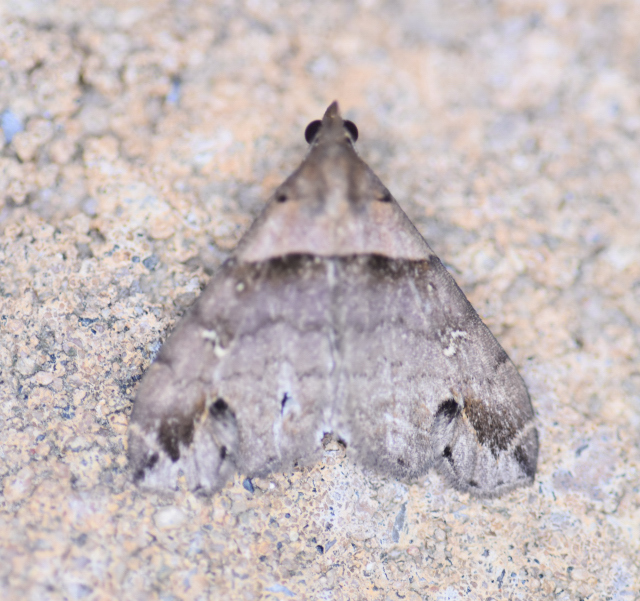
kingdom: Animalia
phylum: Arthropoda
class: Insecta
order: Lepidoptera
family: Erebidae
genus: Lascoria
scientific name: Lascoria ambigualis
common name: Ambiguous moth
